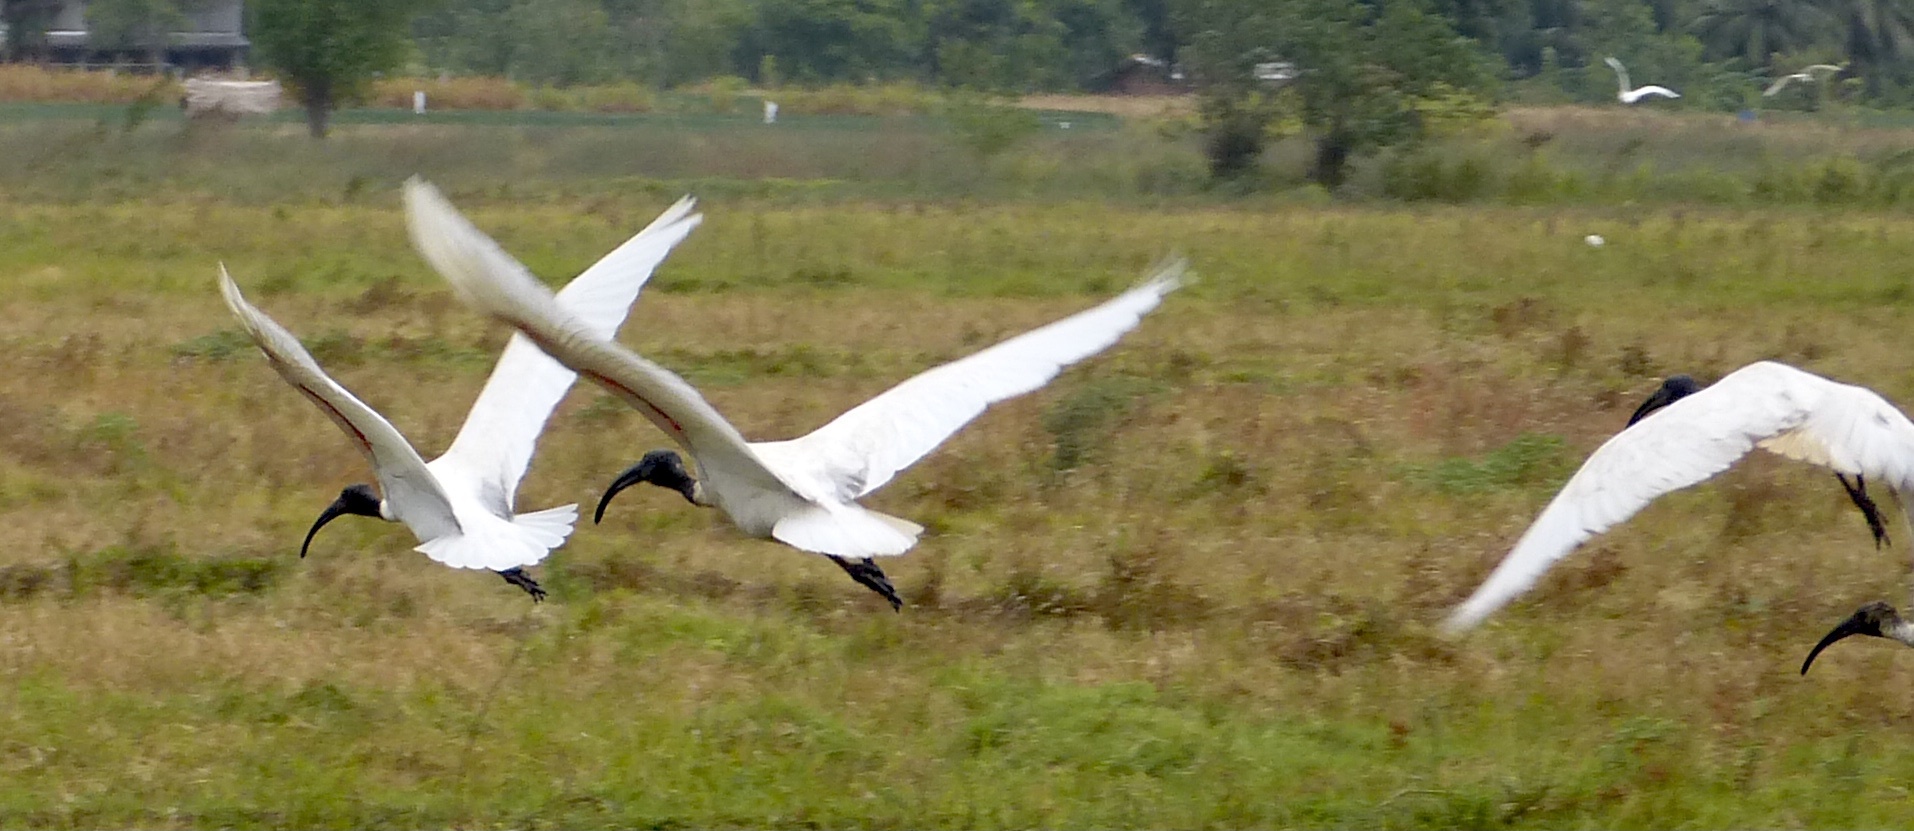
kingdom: Animalia
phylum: Chordata
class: Aves
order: Pelecaniformes
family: Threskiornithidae
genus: Threskiornis
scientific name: Threskiornis melanocephalus
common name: Black-headed ibis
